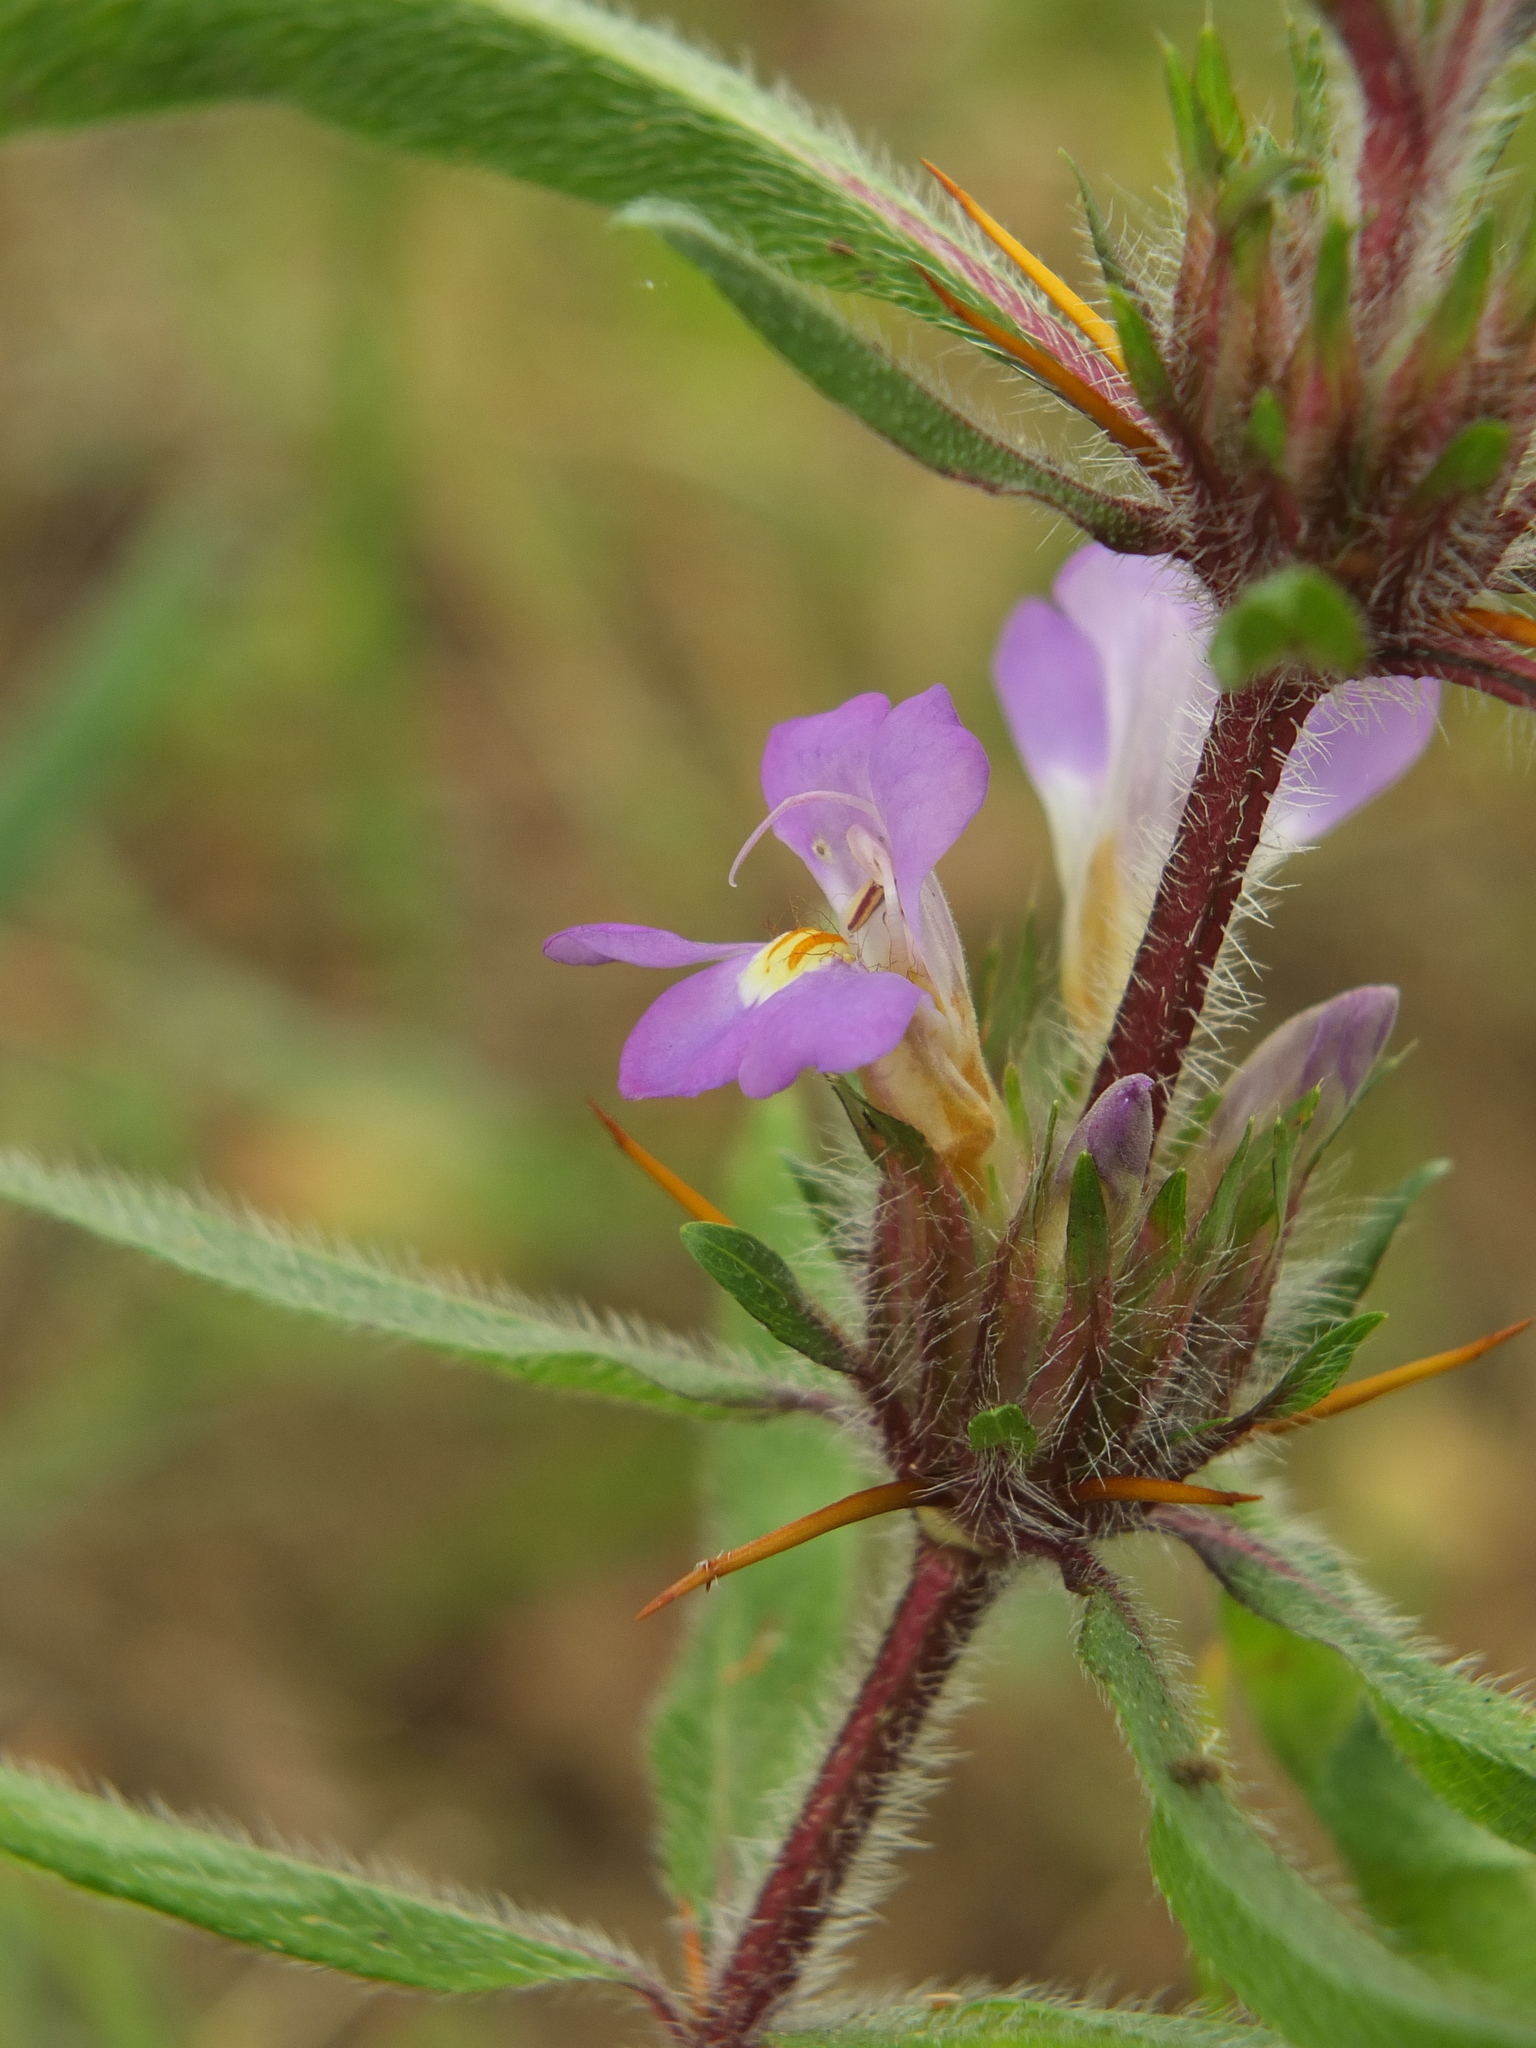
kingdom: Plantae
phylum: Tracheophyta
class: Magnoliopsida
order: Lamiales
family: Acanthaceae
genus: Hygrophila
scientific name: Hygrophila auriculata
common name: Hygrophila
